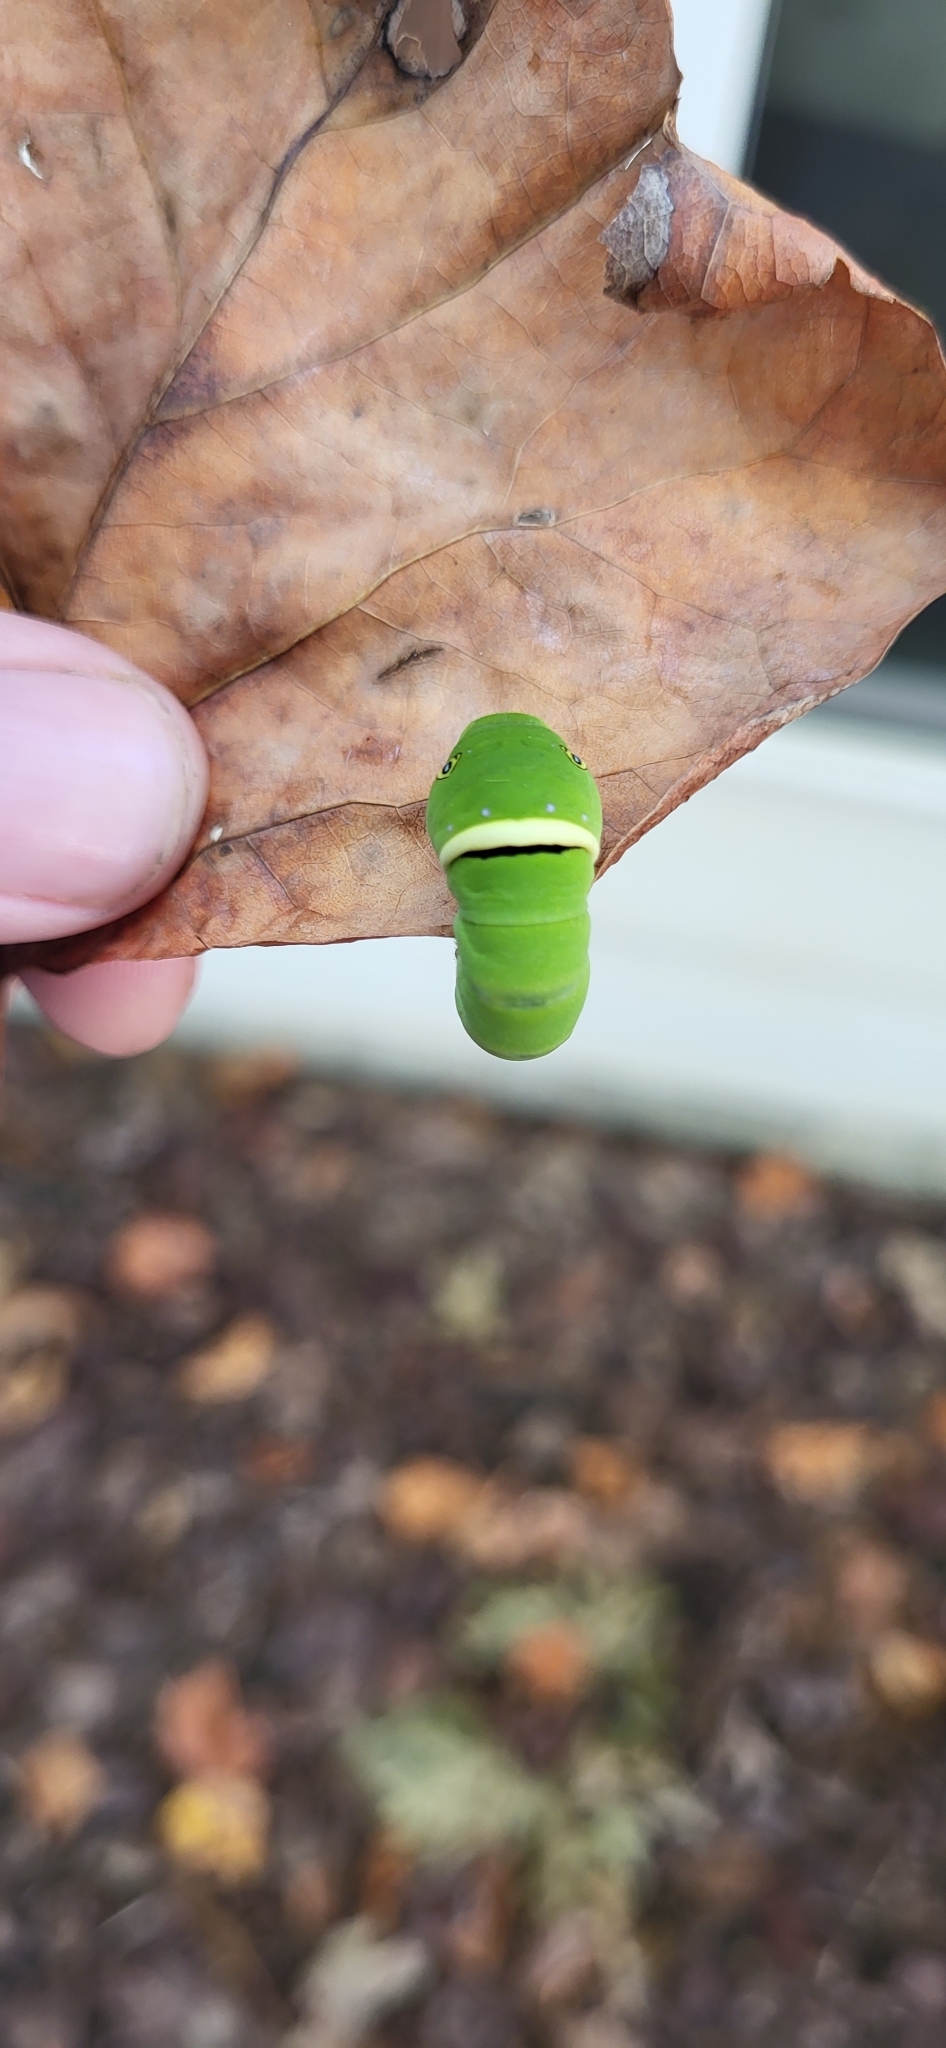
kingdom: Animalia
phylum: Arthropoda
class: Insecta
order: Lepidoptera
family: Papilionidae
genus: Papilio
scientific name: Papilio glaucus
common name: Tiger swallowtail
